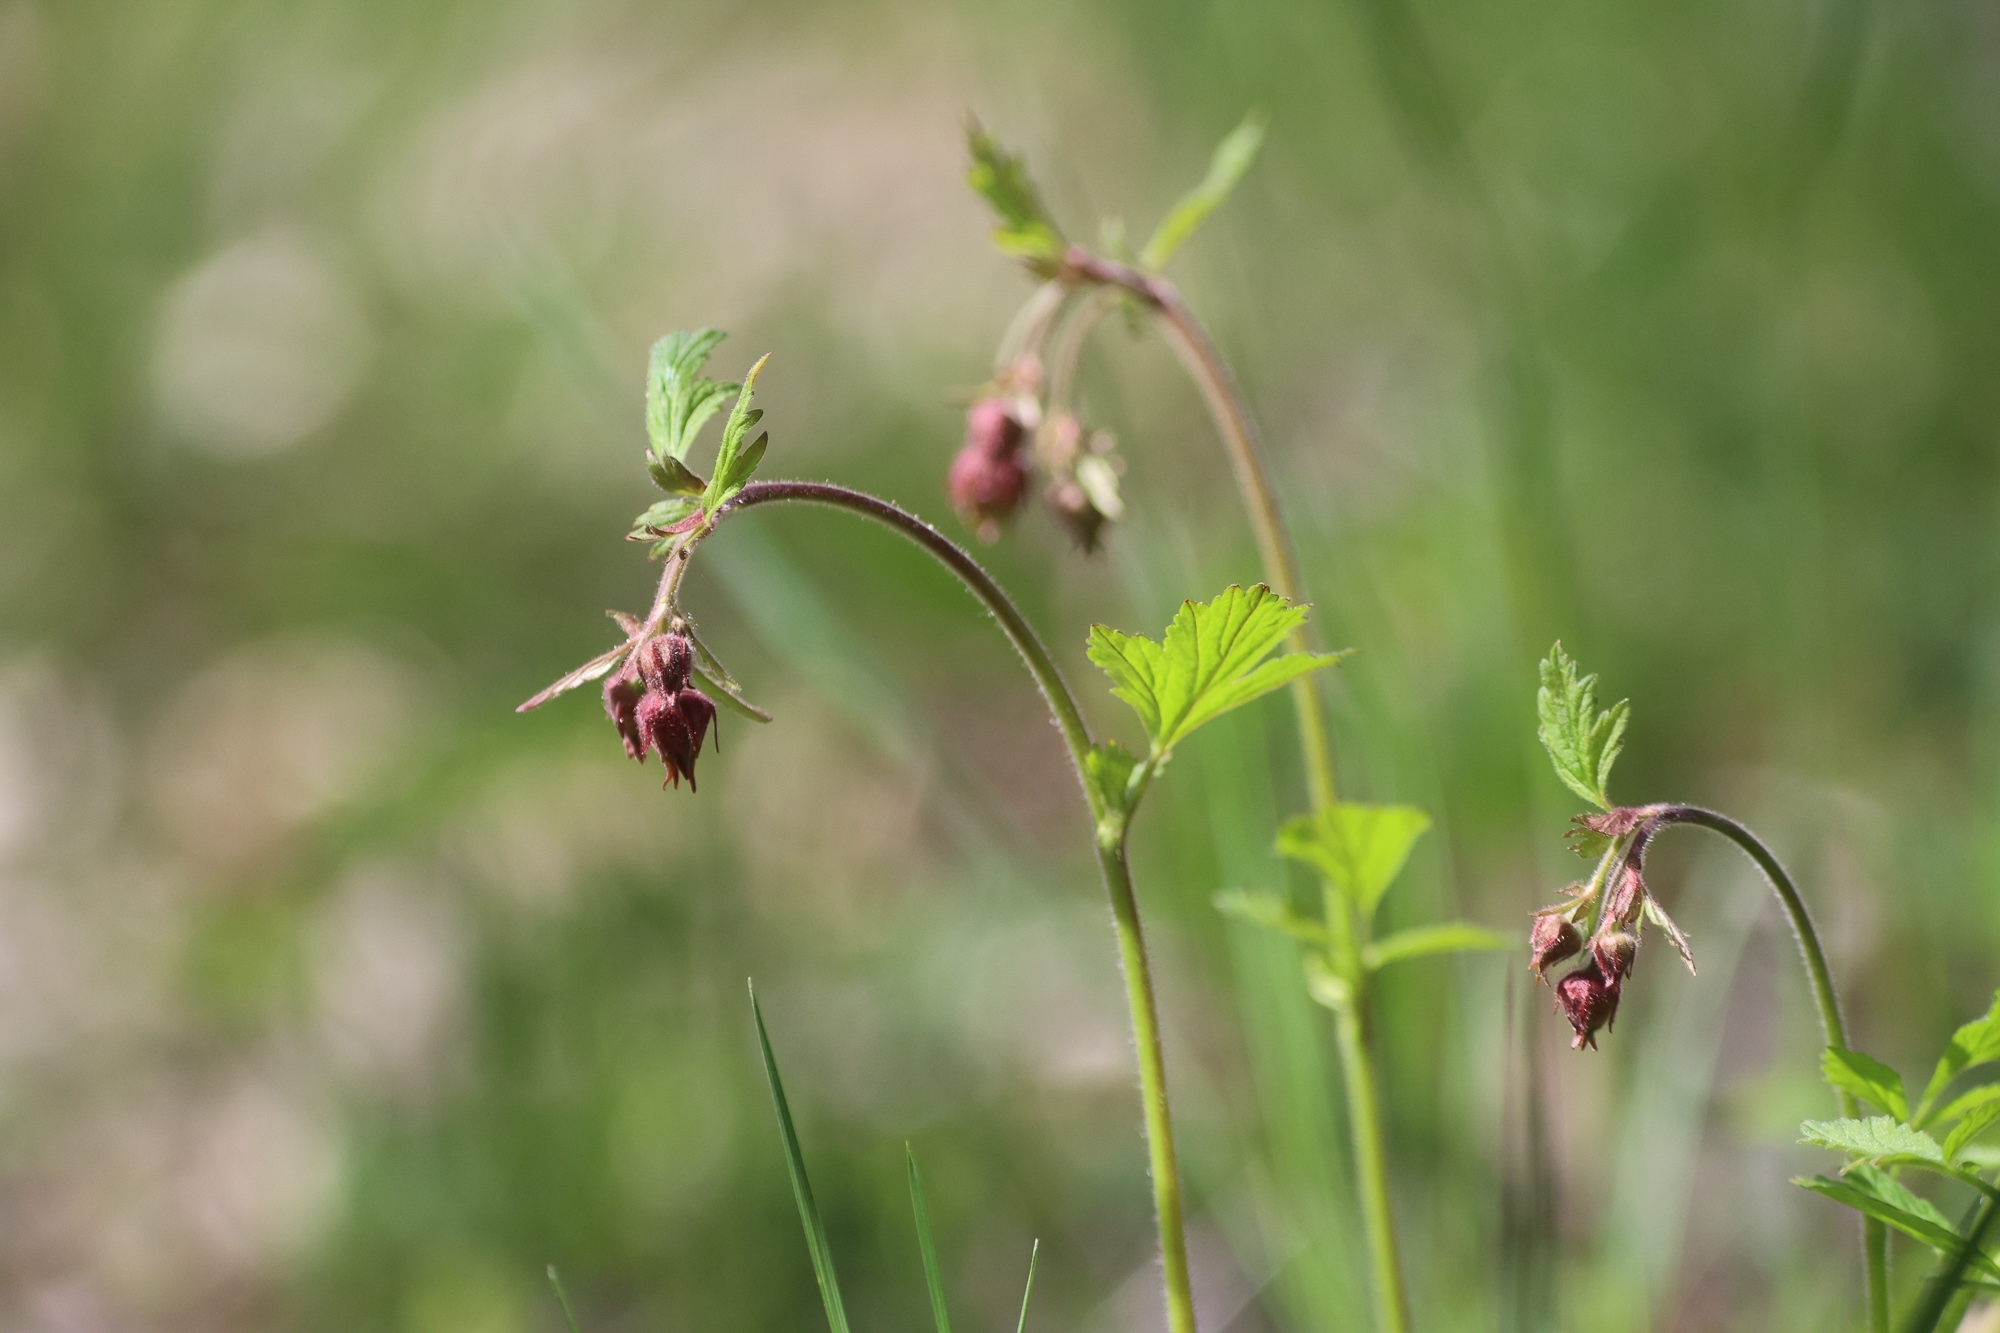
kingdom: Plantae
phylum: Tracheophyta
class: Magnoliopsida
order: Rosales
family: Rosaceae
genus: Geum
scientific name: Geum rivale
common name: Water avens
